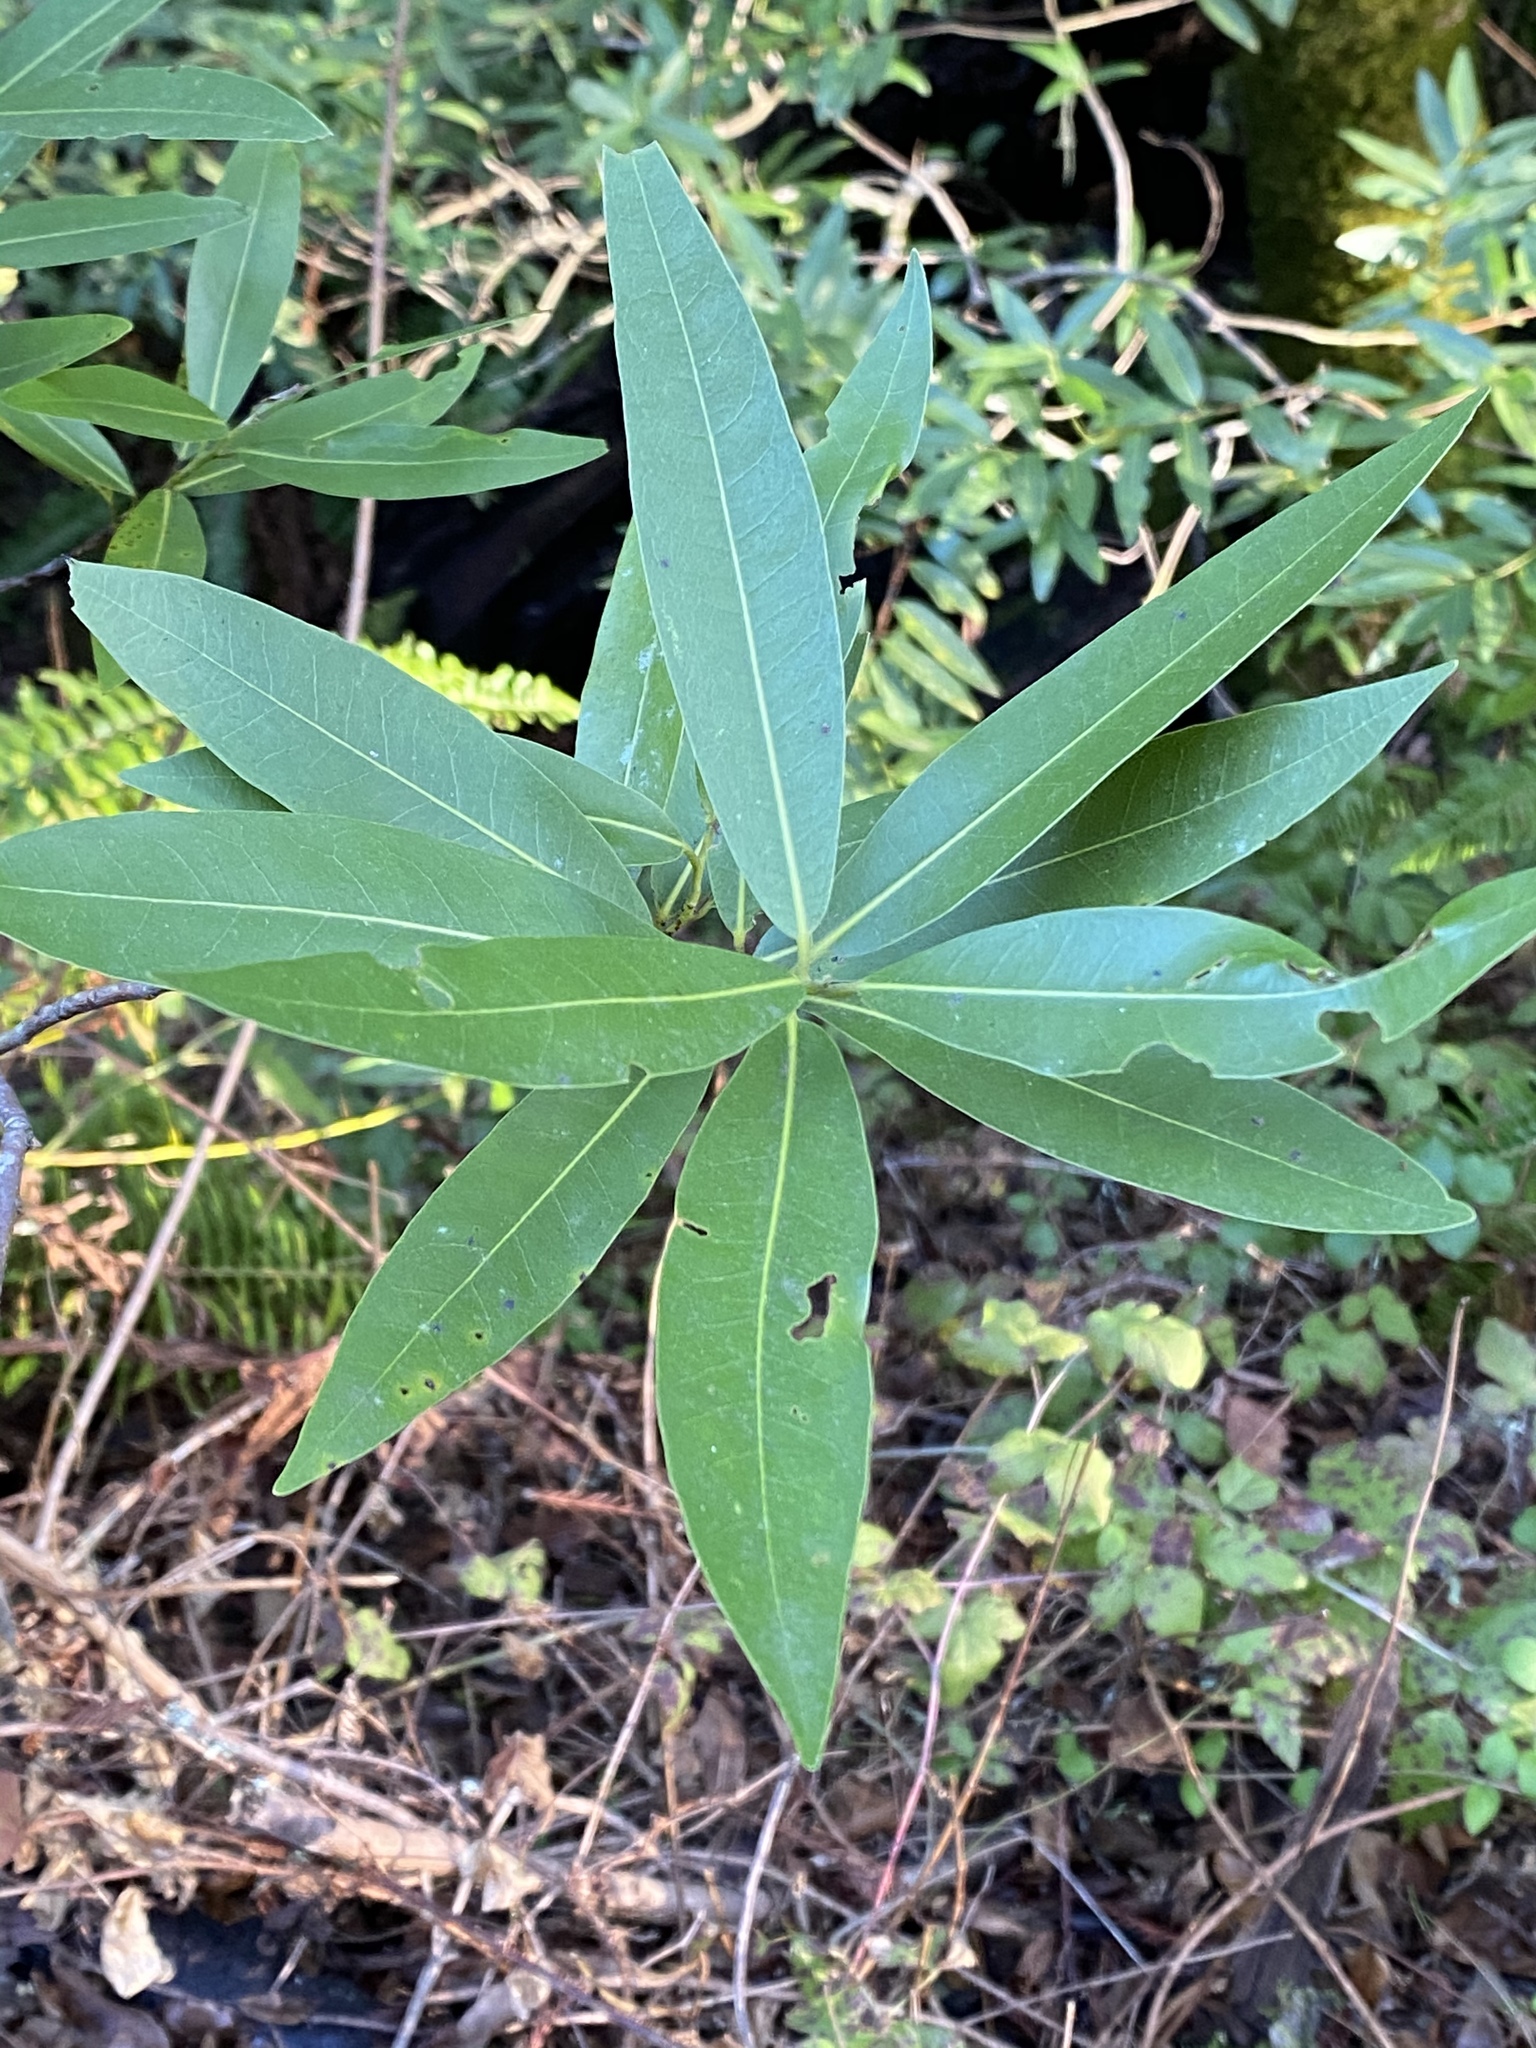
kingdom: Plantae
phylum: Tracheophyta
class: Magnoliopsida
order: Laurales
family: Lauraceae
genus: Umbellularia
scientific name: Umbellularia californica
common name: California bay
